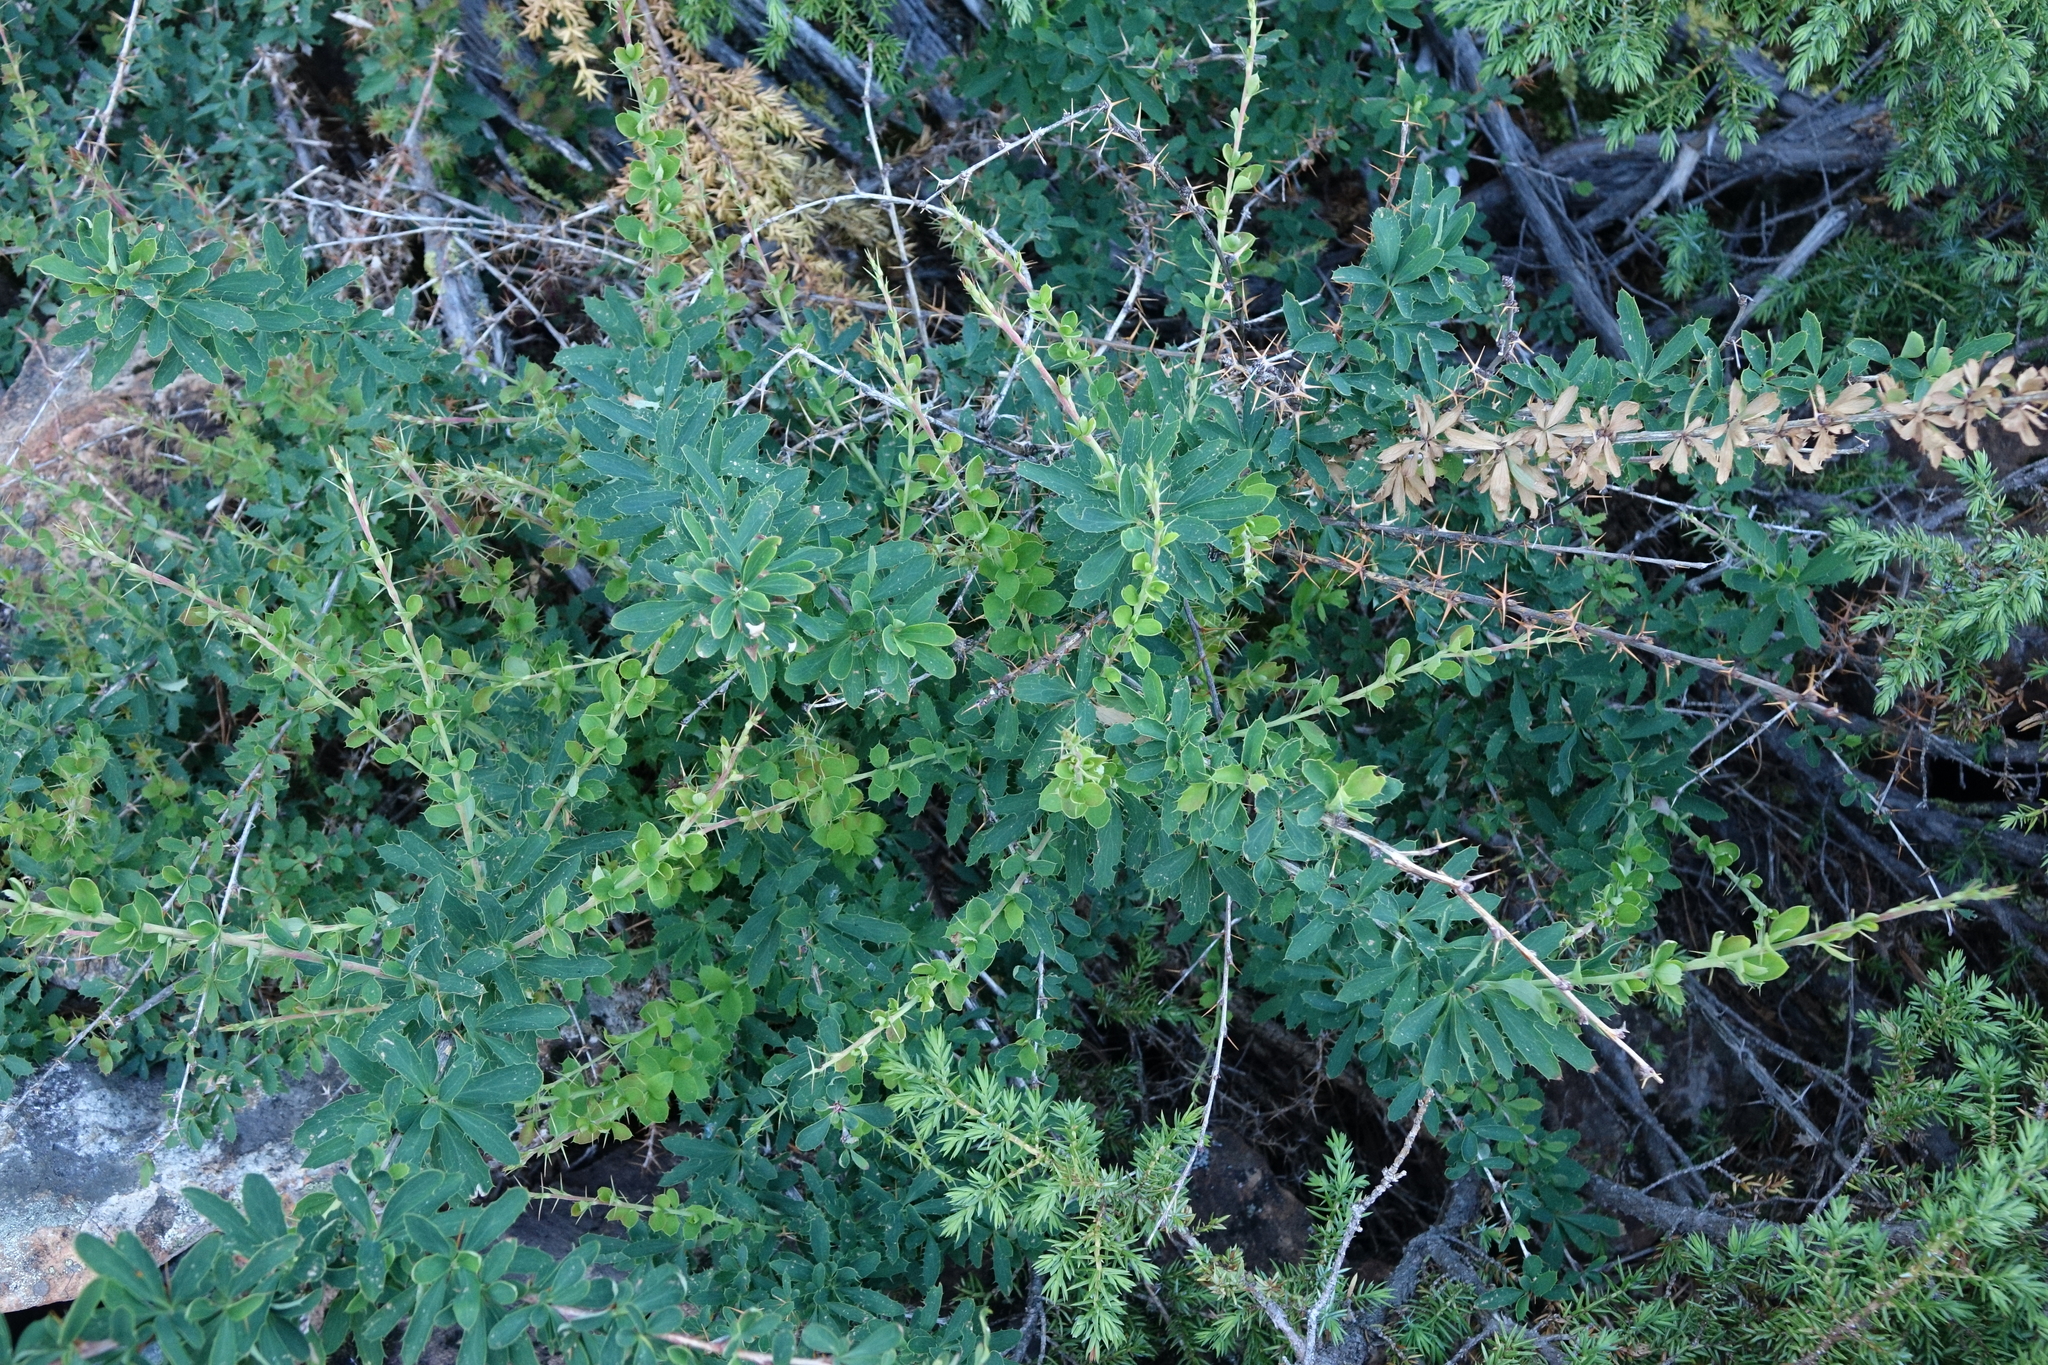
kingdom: Plantae
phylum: Tracheophyta
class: Magnoliopsida
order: Ranunculales
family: Berberidaceae
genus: Berberis
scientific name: Berberis sibirica
